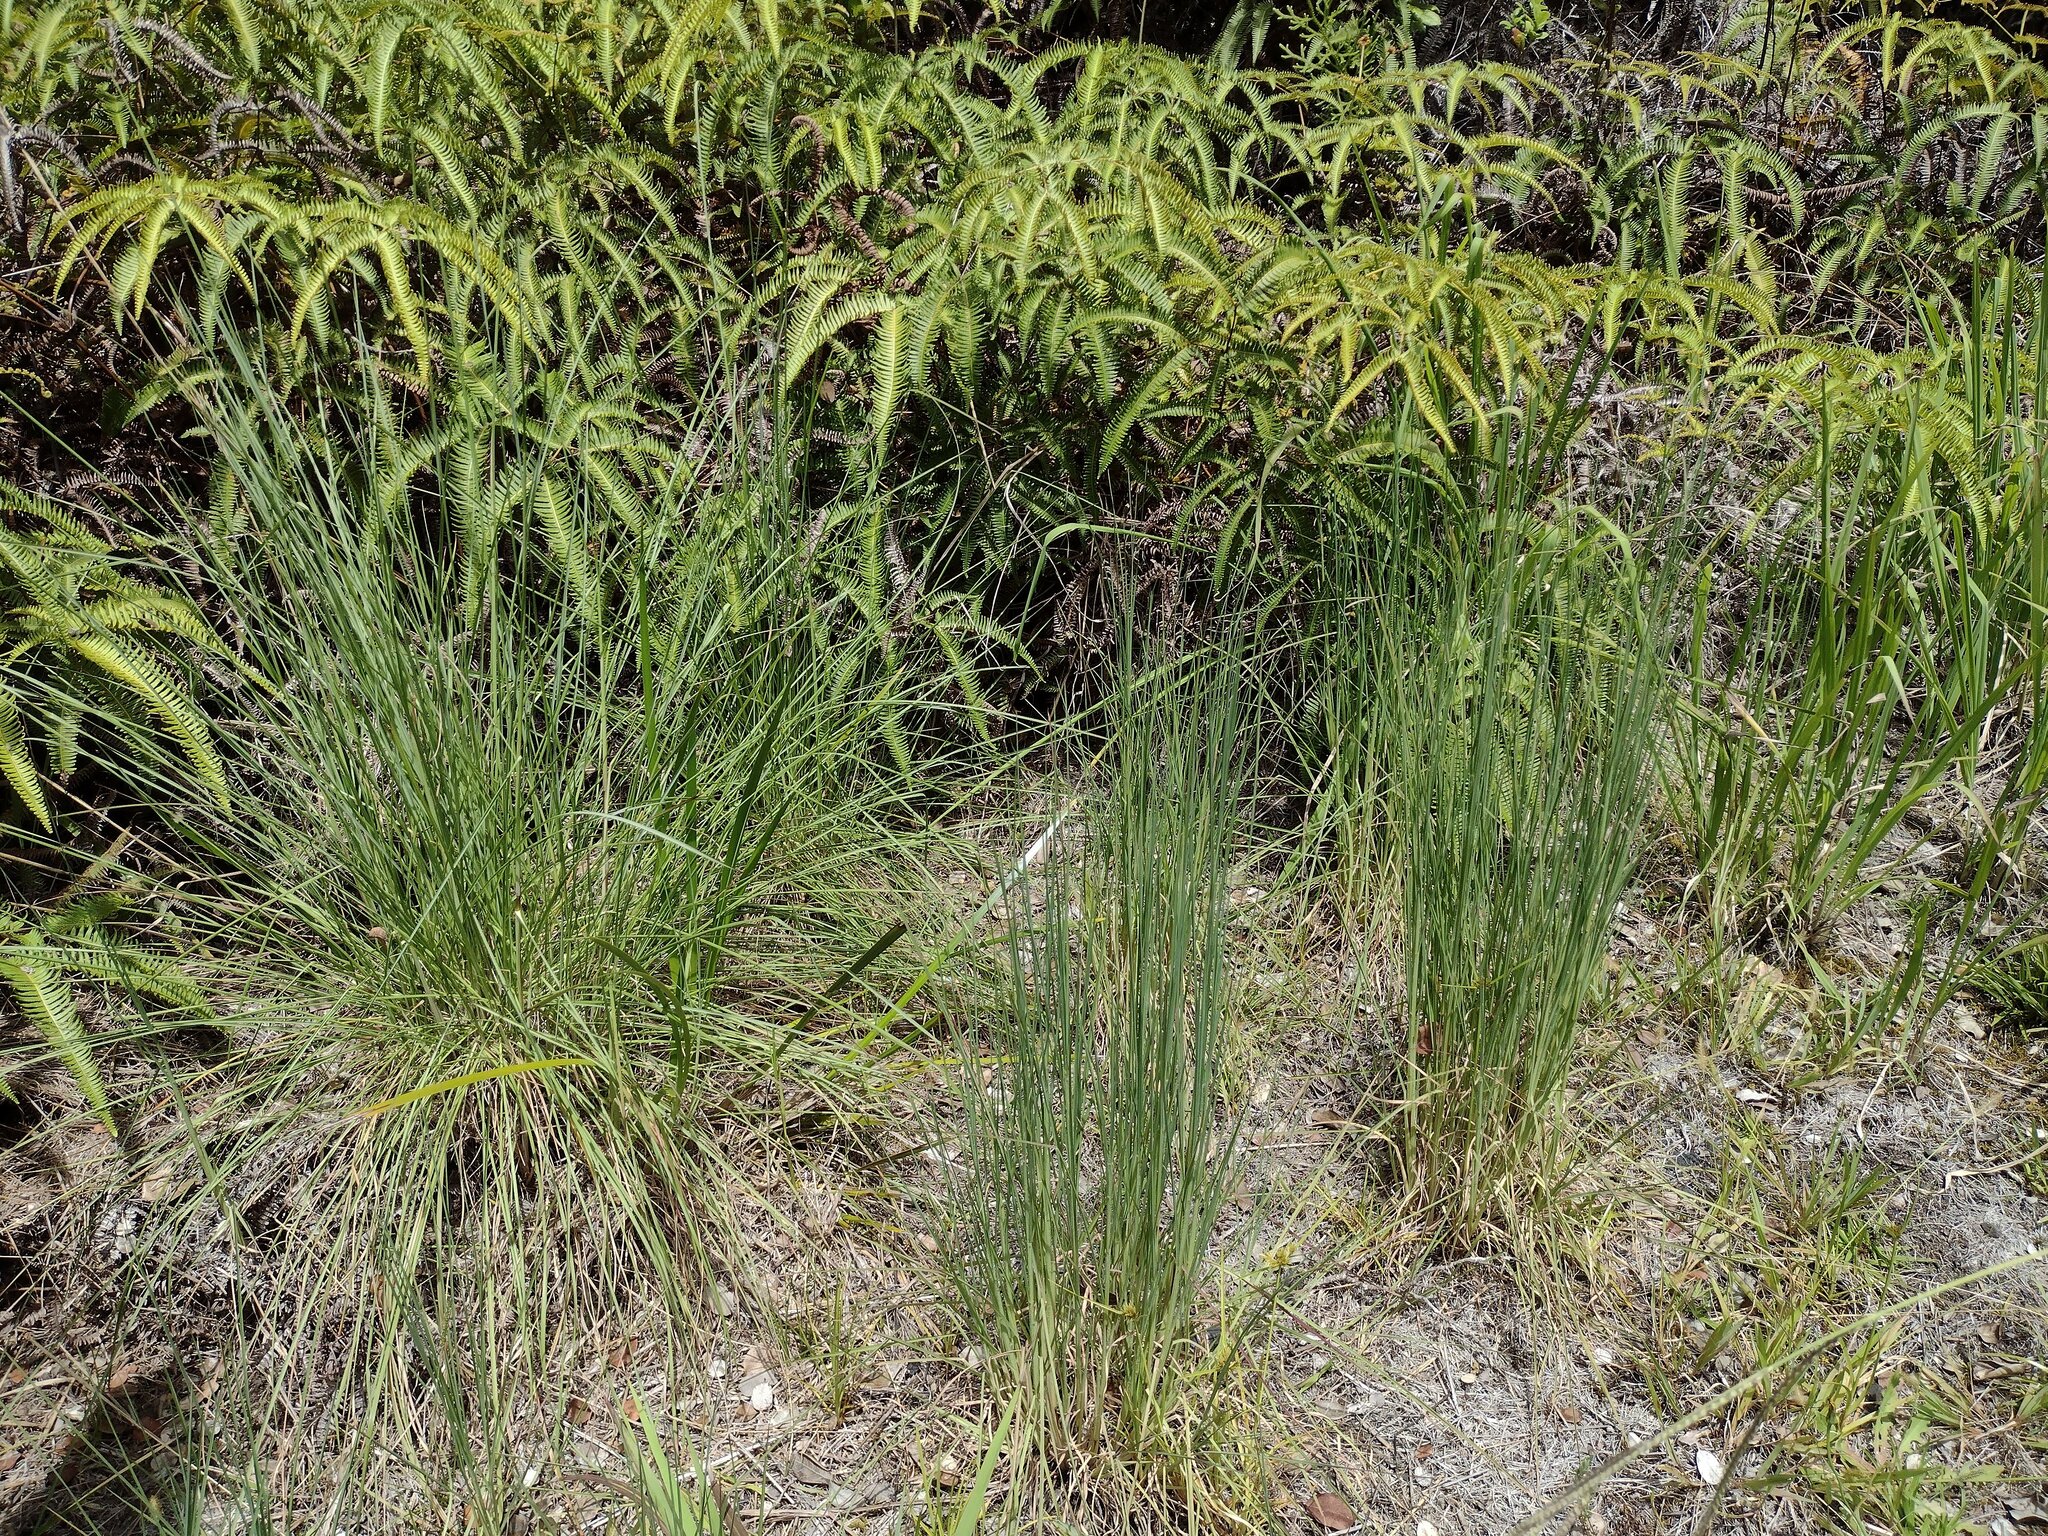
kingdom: Plantae
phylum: Tracheophyta
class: Liliopsida
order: Poales
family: Poaceae
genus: Andropogon
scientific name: Andropogon
